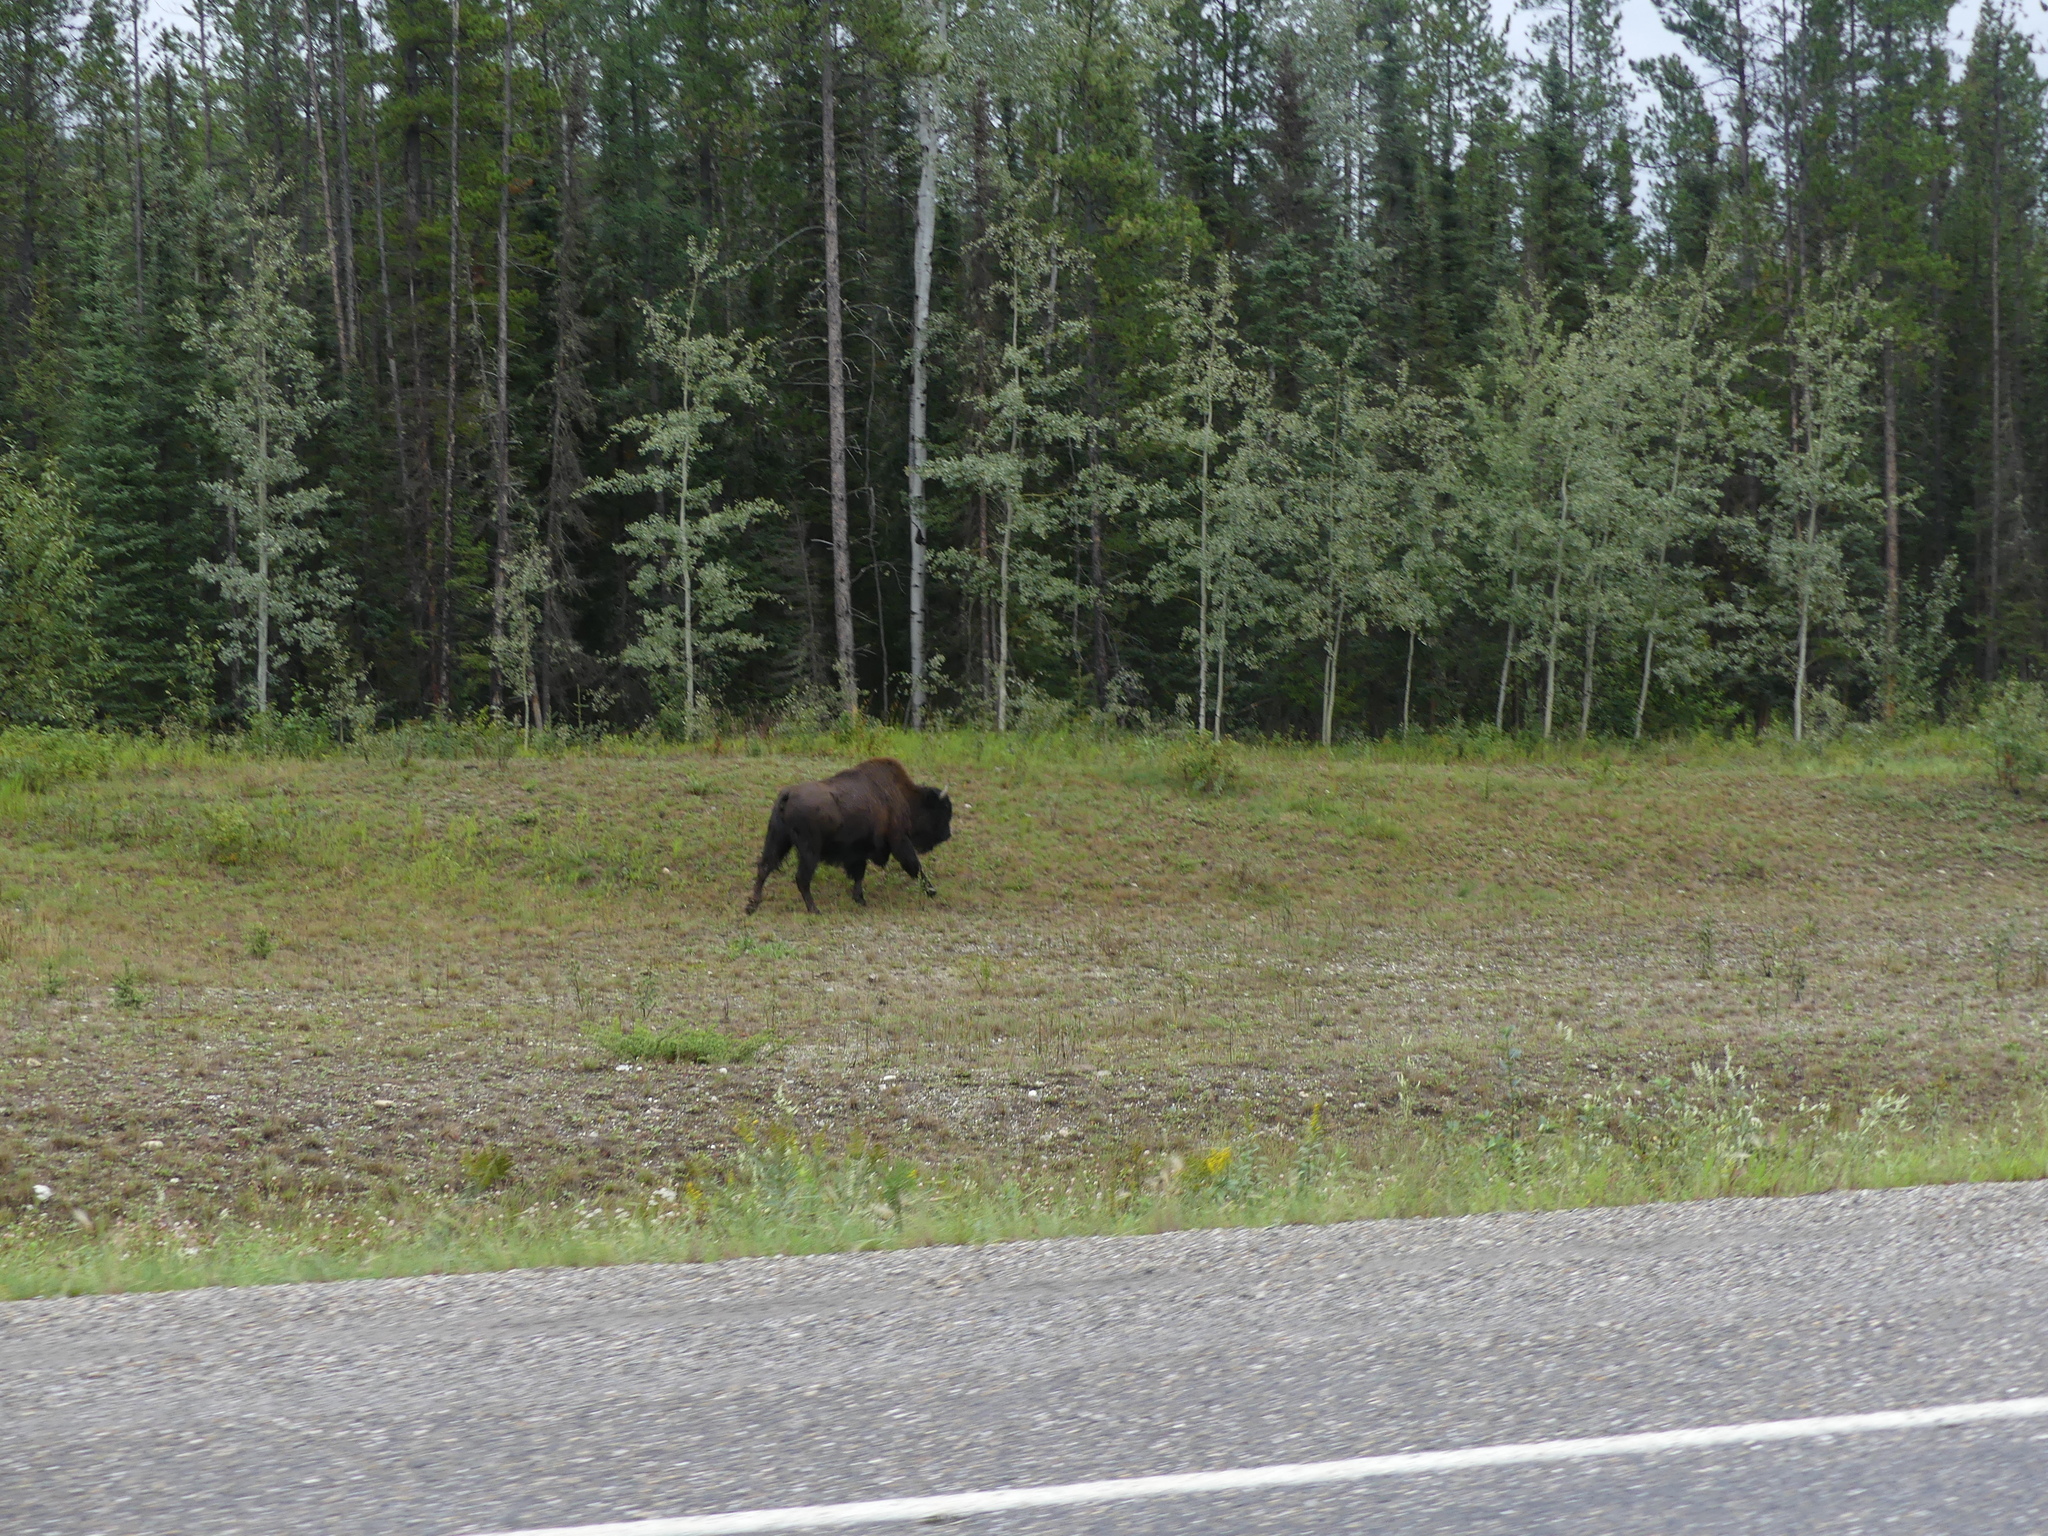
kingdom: Animalia
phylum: Chordata
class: Mammalia
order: Artiodactyla
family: Bovidae
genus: Bison
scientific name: Bison bison
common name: American bison
